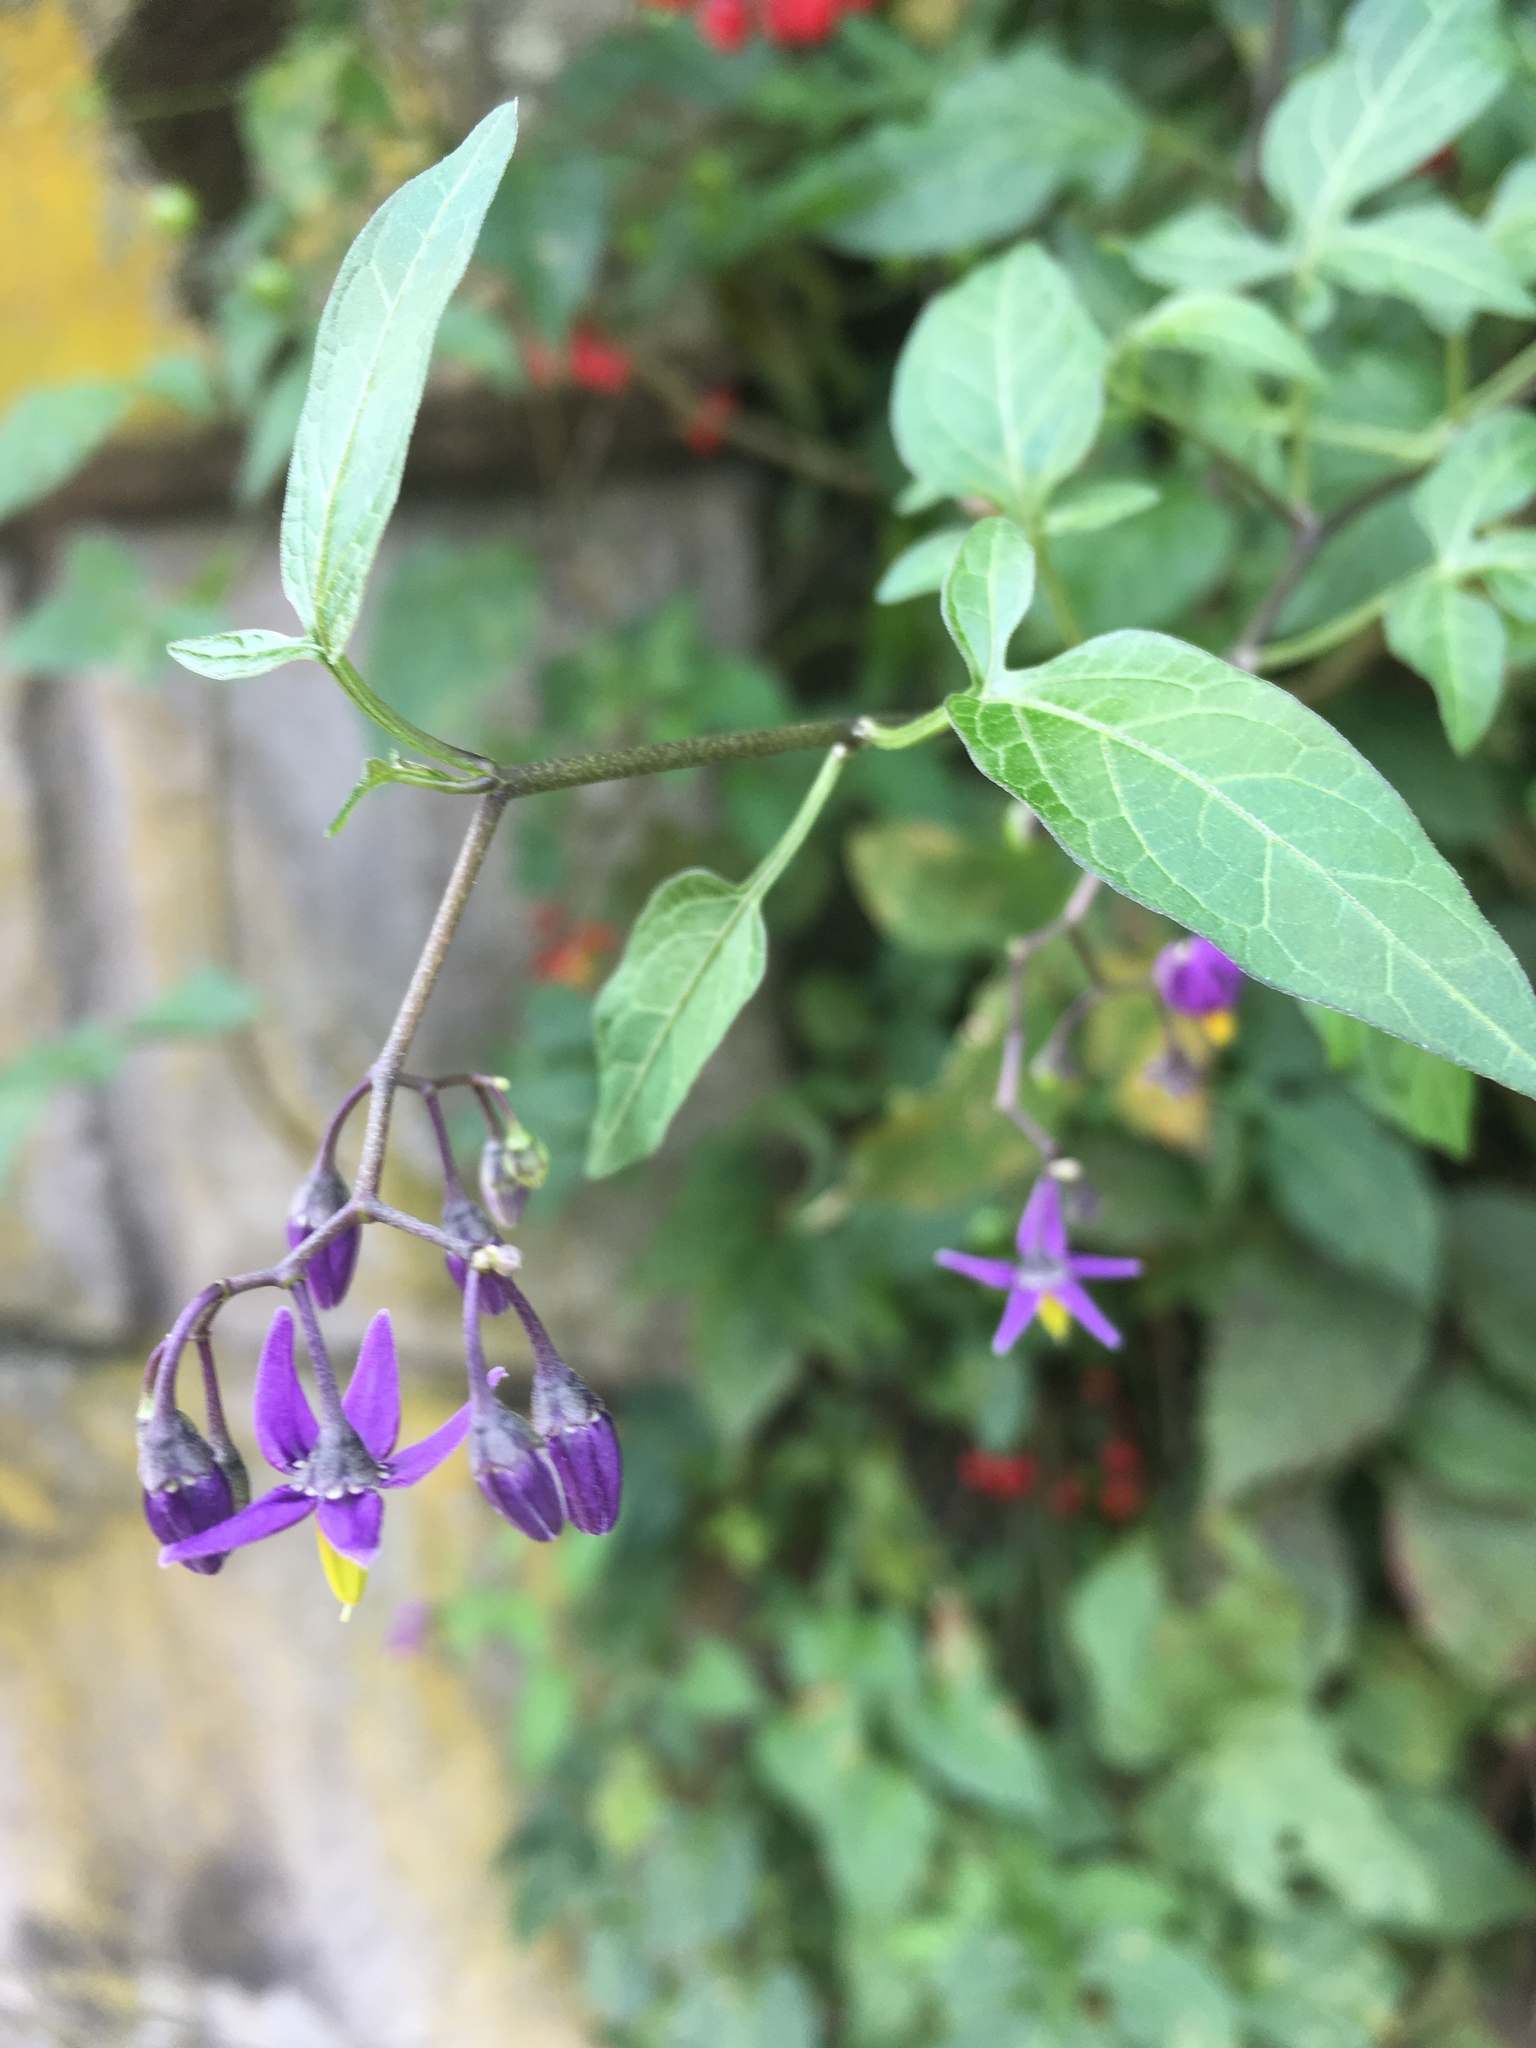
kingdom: Plantae
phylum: Tracheophyta
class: Magnoliopsida
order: Solanales
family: Solanaceae
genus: Solanum
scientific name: Solanum dulcamara
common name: Climbing nightshade
